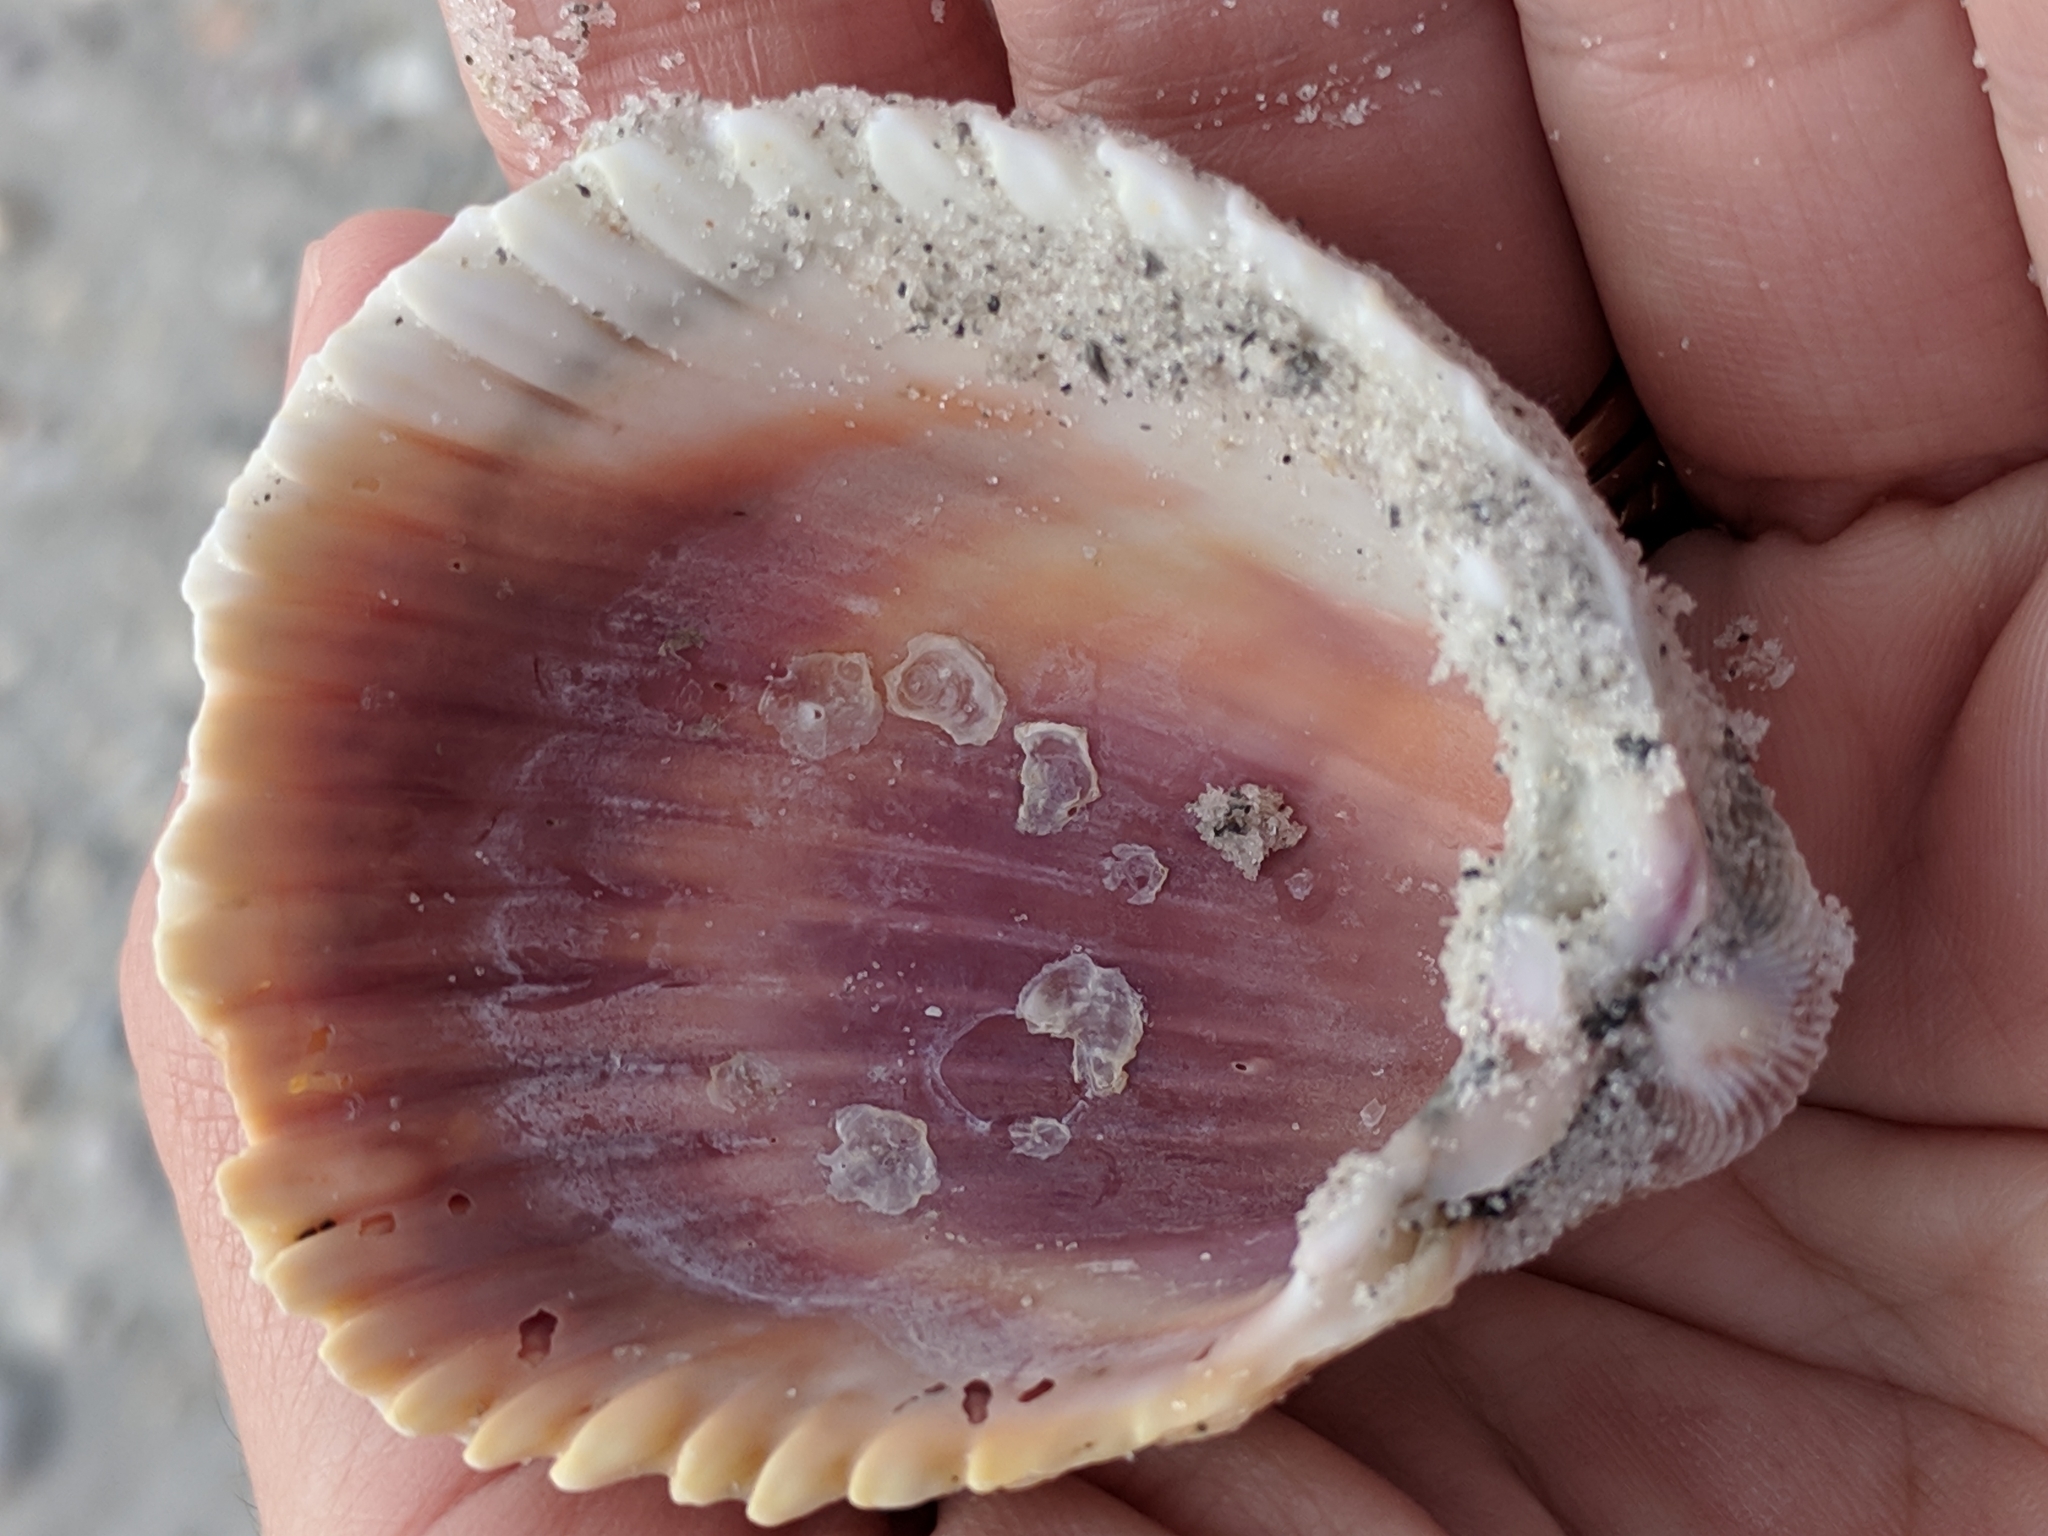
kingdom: Animalia
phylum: Mollusca
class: Bivalvia
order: Cardiida
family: Cardiidae
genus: Trachycardium
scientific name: Trachycardium egmontianum
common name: Florida pricklycockle
